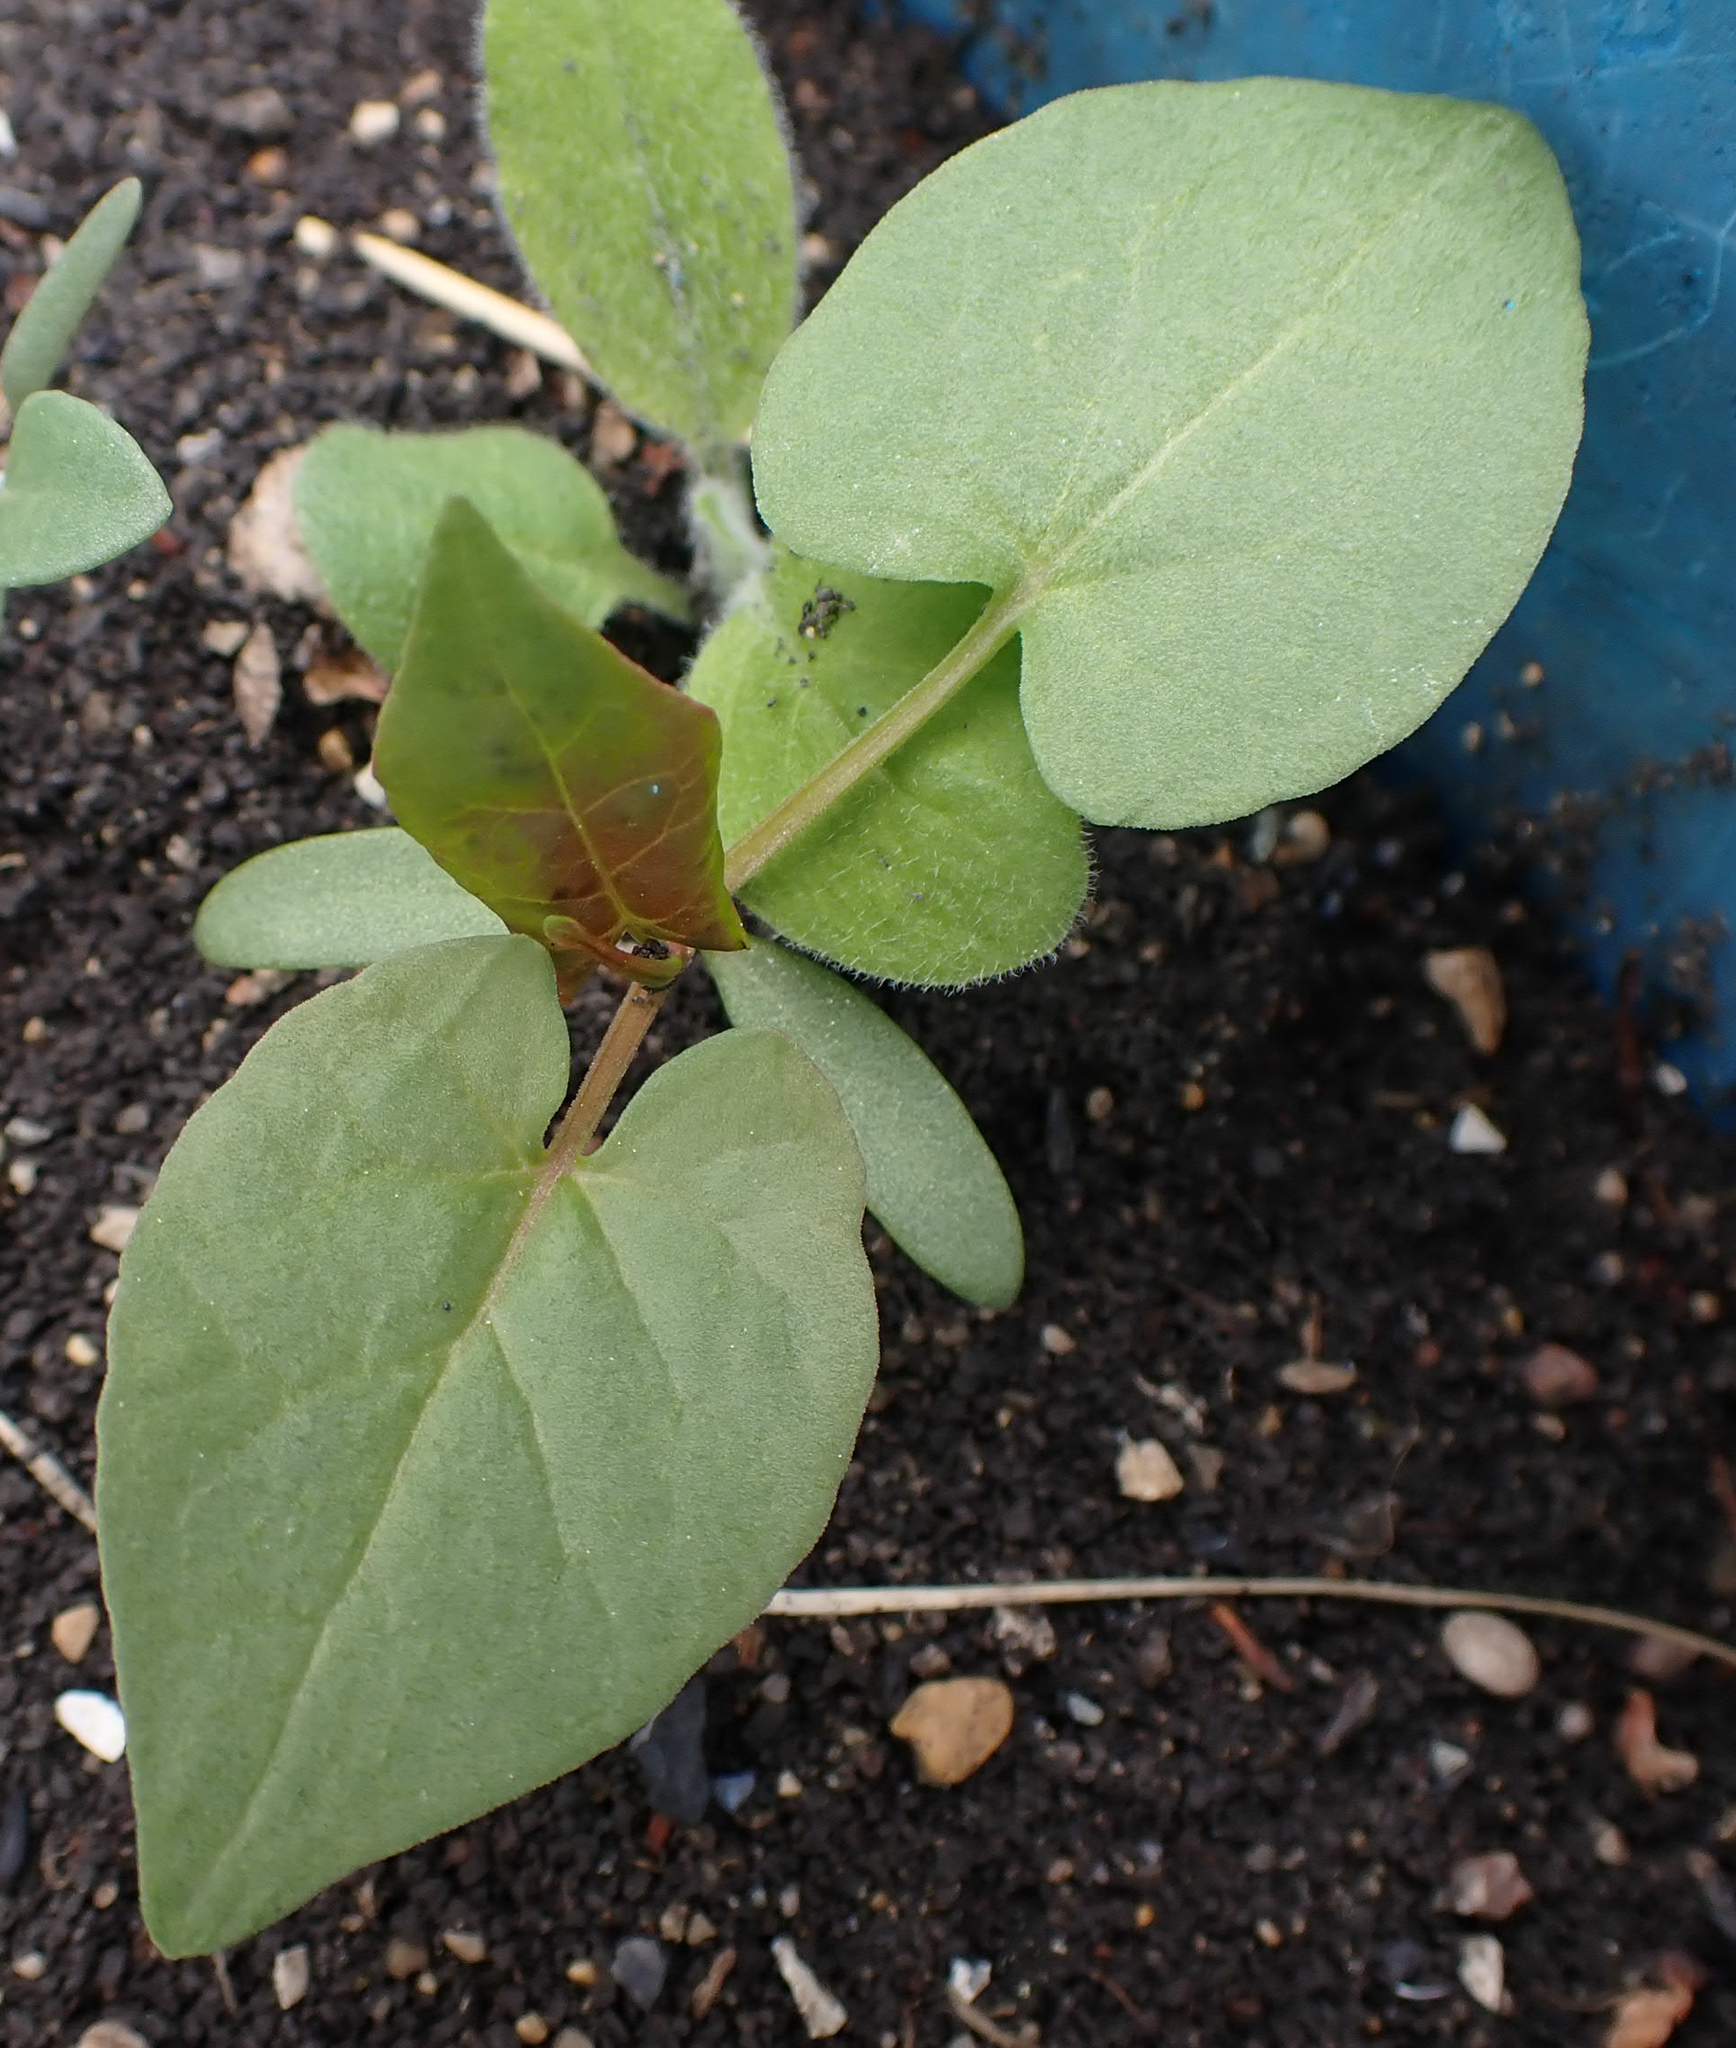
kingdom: Plantae
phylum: Tracheophyta
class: Magnoliopsida
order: Caryophyllales
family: Polygonaceae
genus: Fallopia
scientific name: Fallopia convolvulus
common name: Black bindweed
